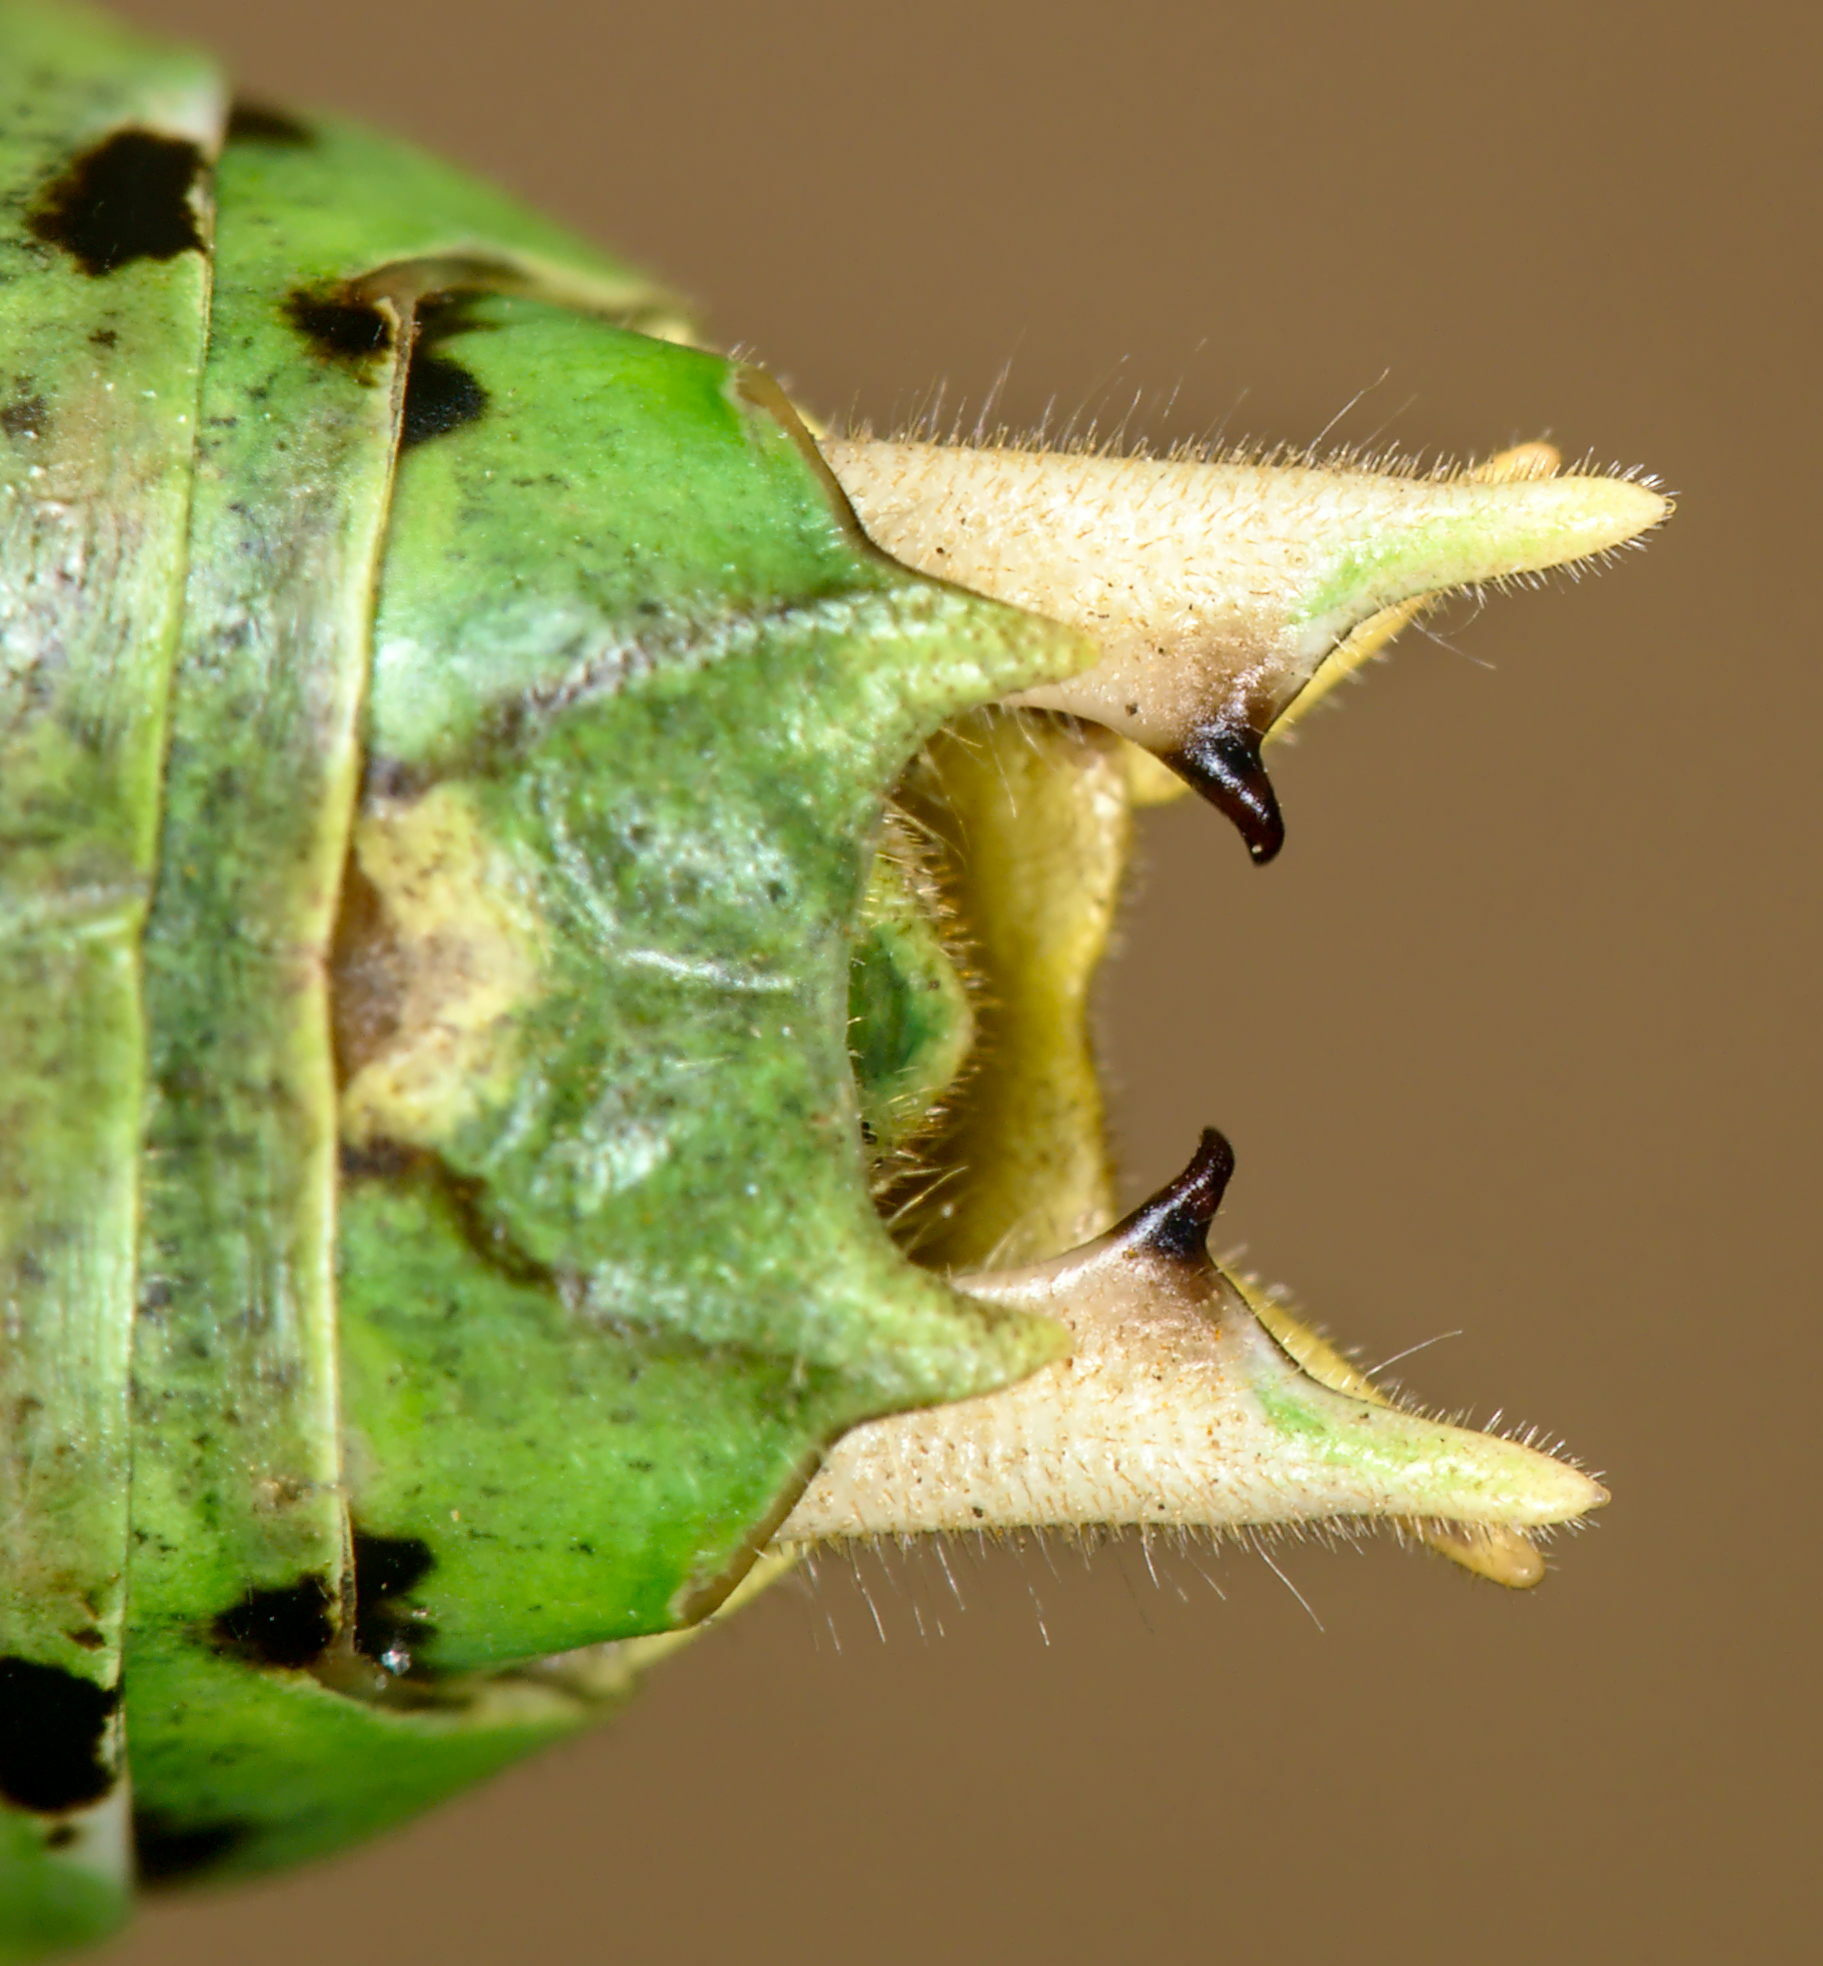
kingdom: Animalia
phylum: Arthropoda
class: Insecta
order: Orthoptera
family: Tettigoniidae
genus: Decticus
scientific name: Decticus verrucivorus
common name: Wart-biter
